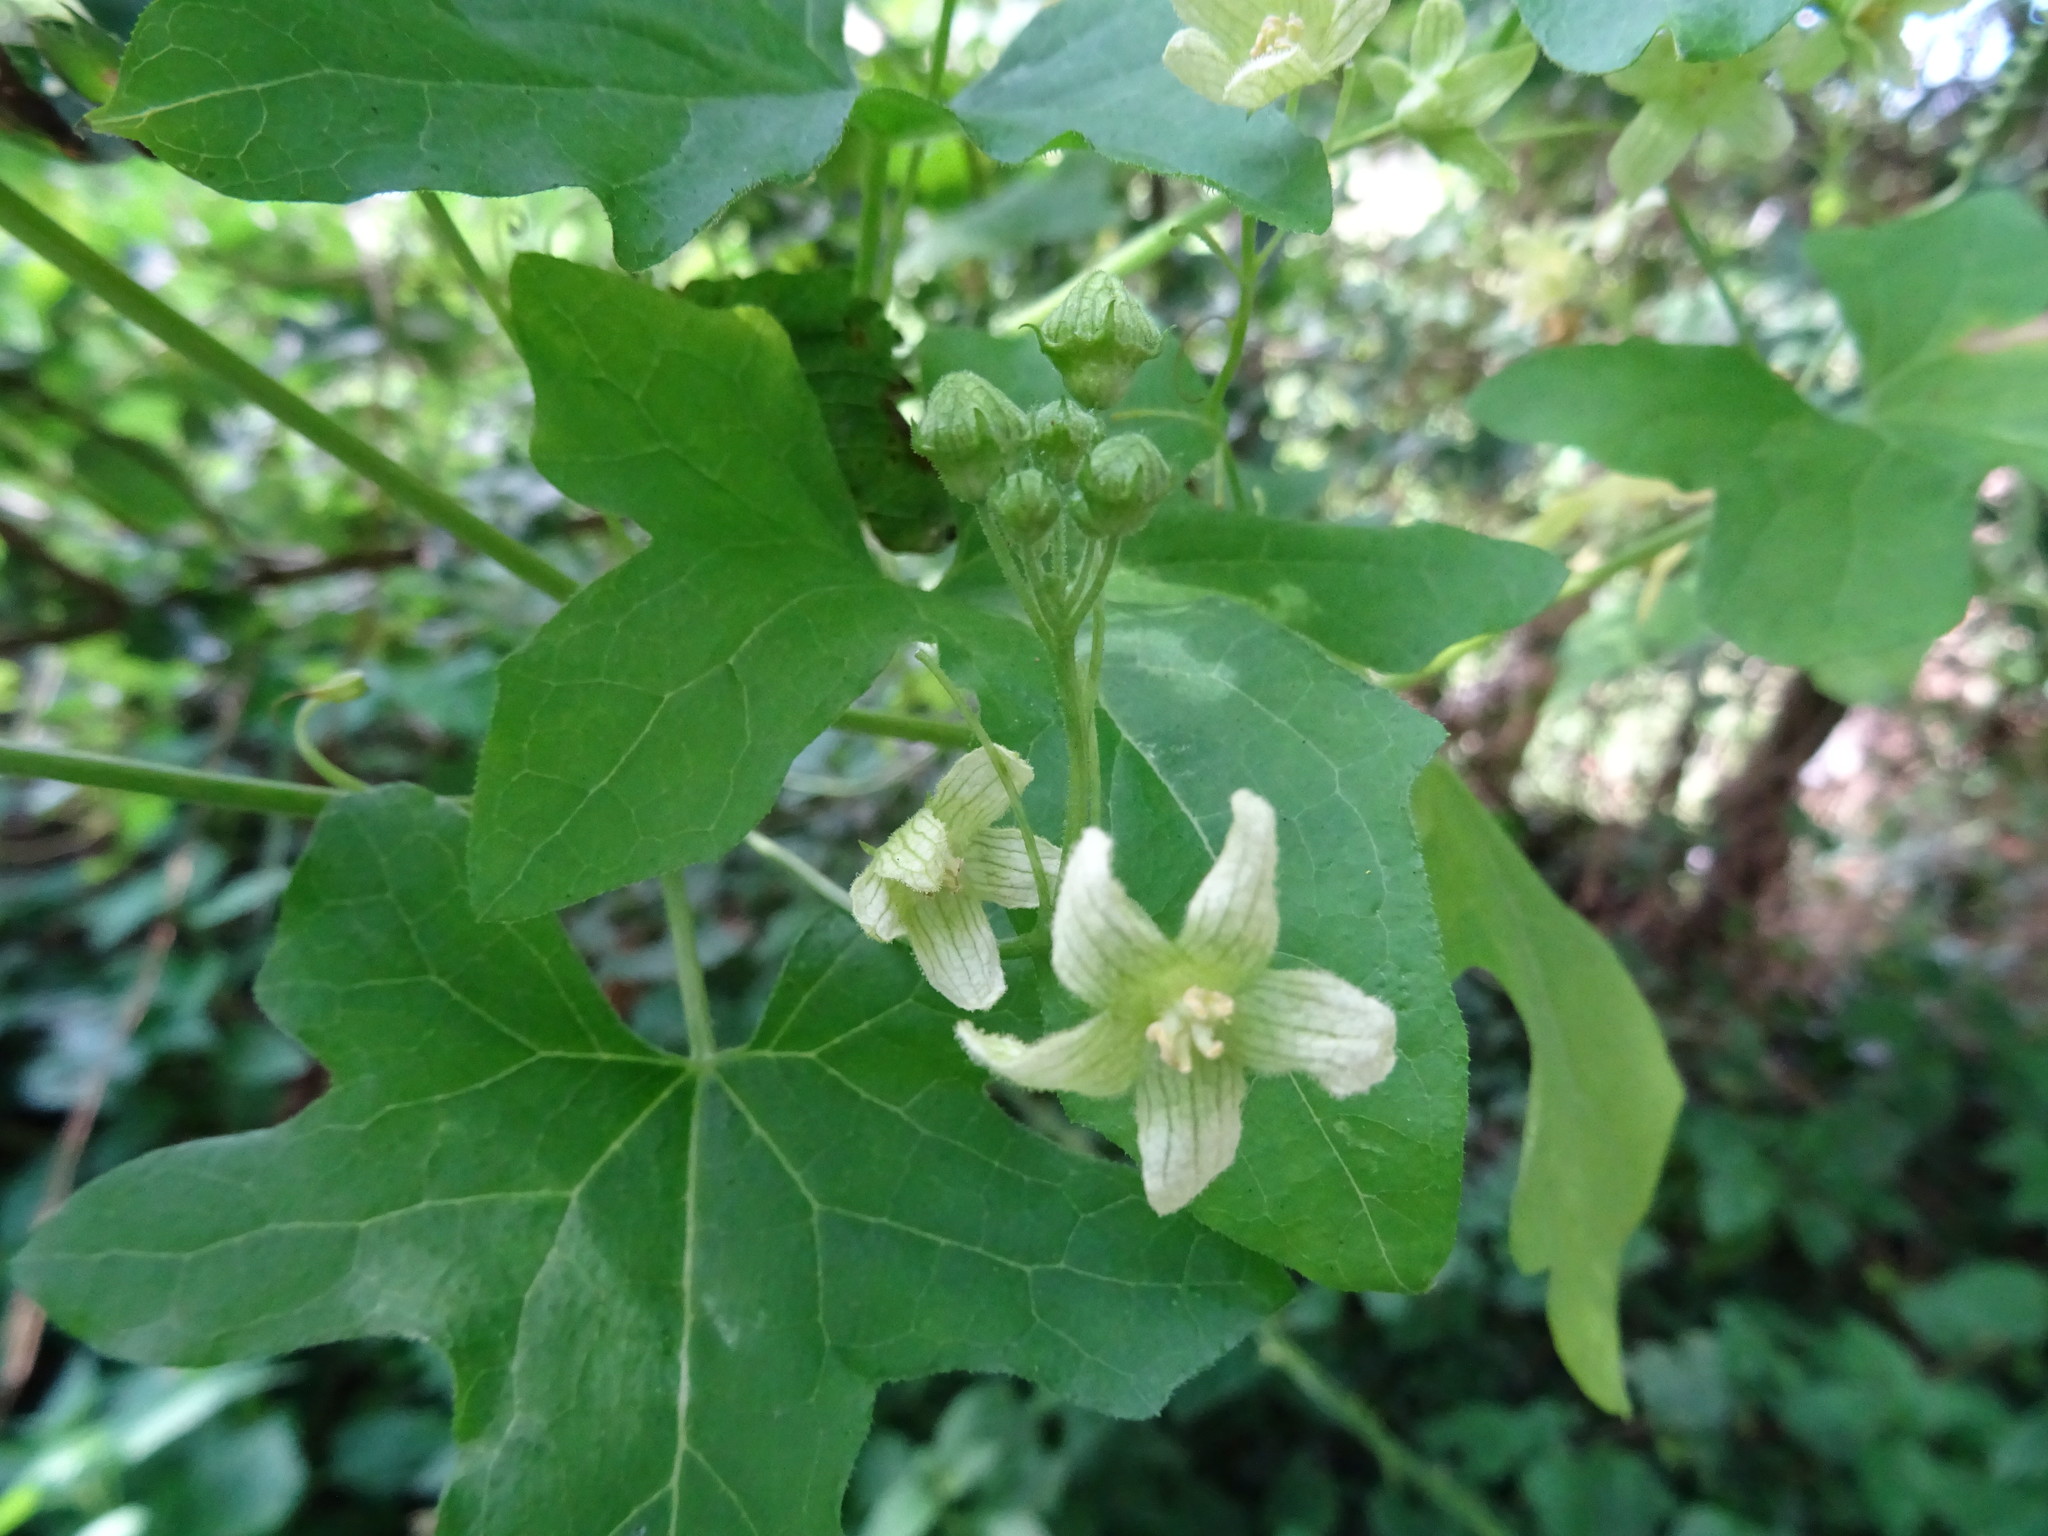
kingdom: Plantae
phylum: Tracheophyta
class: Magnoliopsida
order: Cucurbitales
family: Cucurbitaceae
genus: Bryonia
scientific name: Bryonia cretica
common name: Cretan bryony
